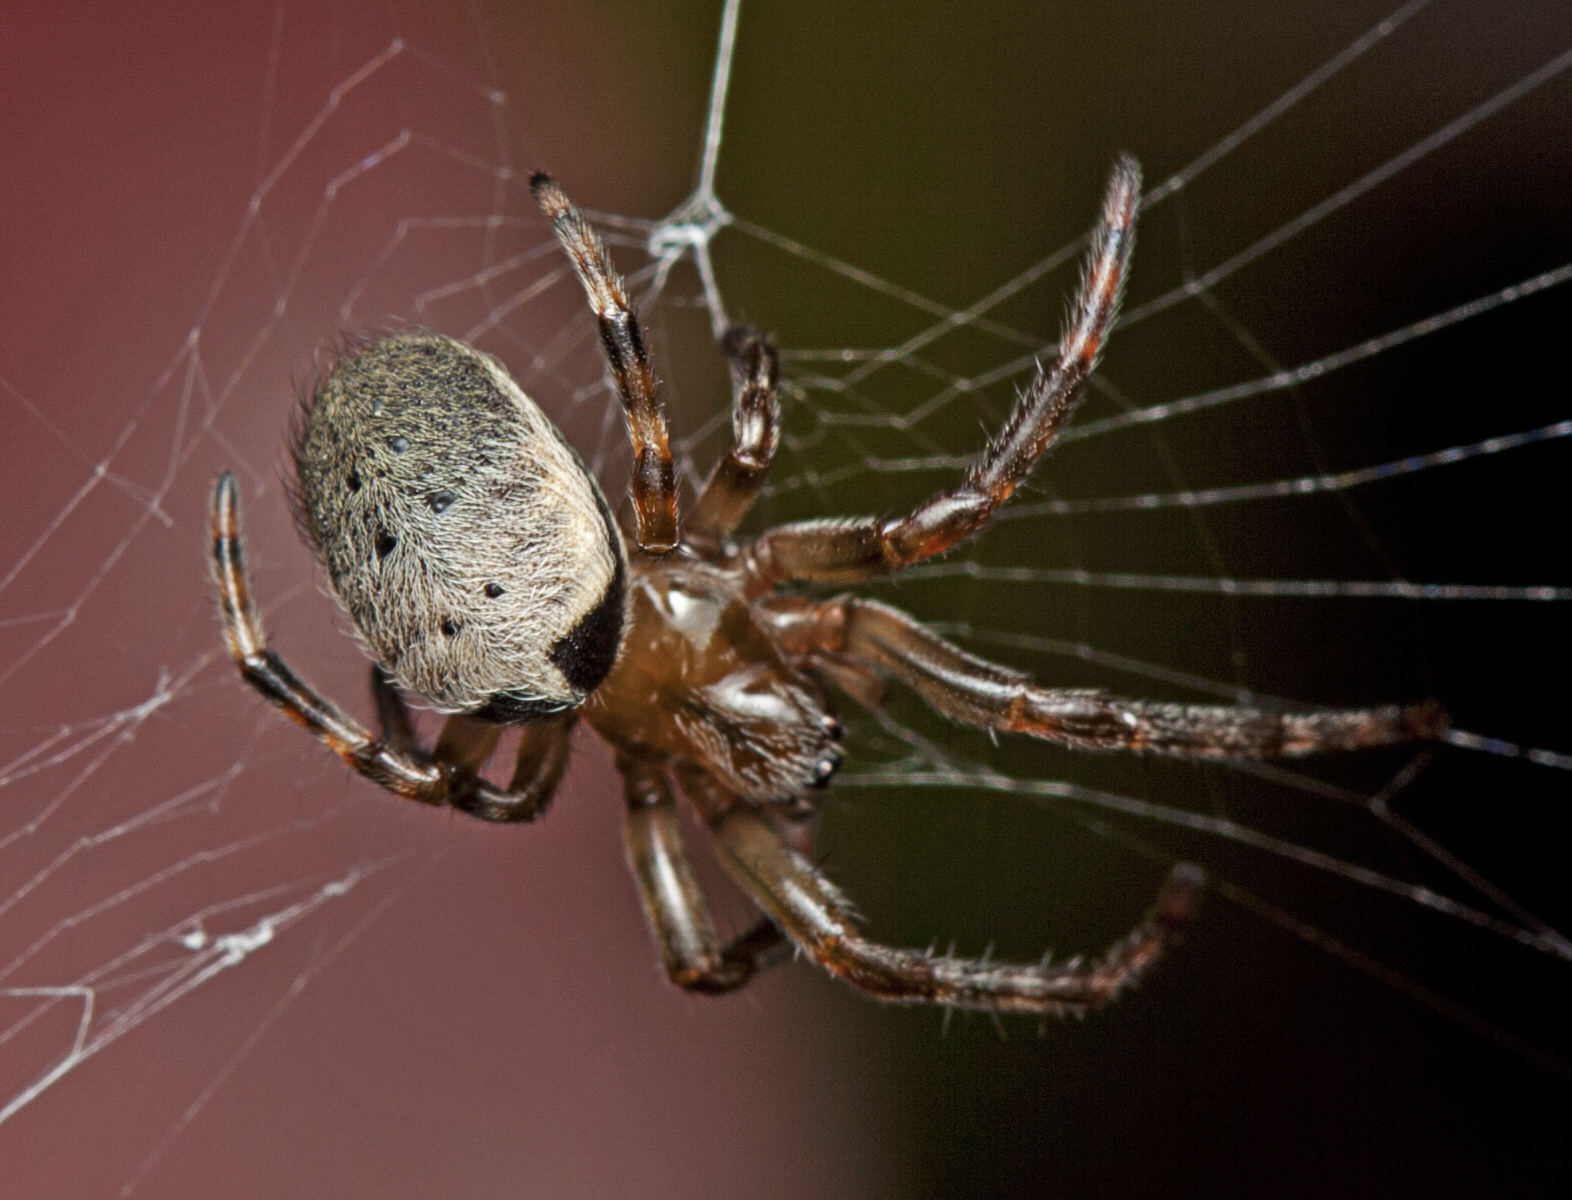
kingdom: Animalia
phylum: Arthropoda
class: Arachnida
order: Araneae
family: Araneidae
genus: Araneus
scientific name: Araneus dimidiatus
